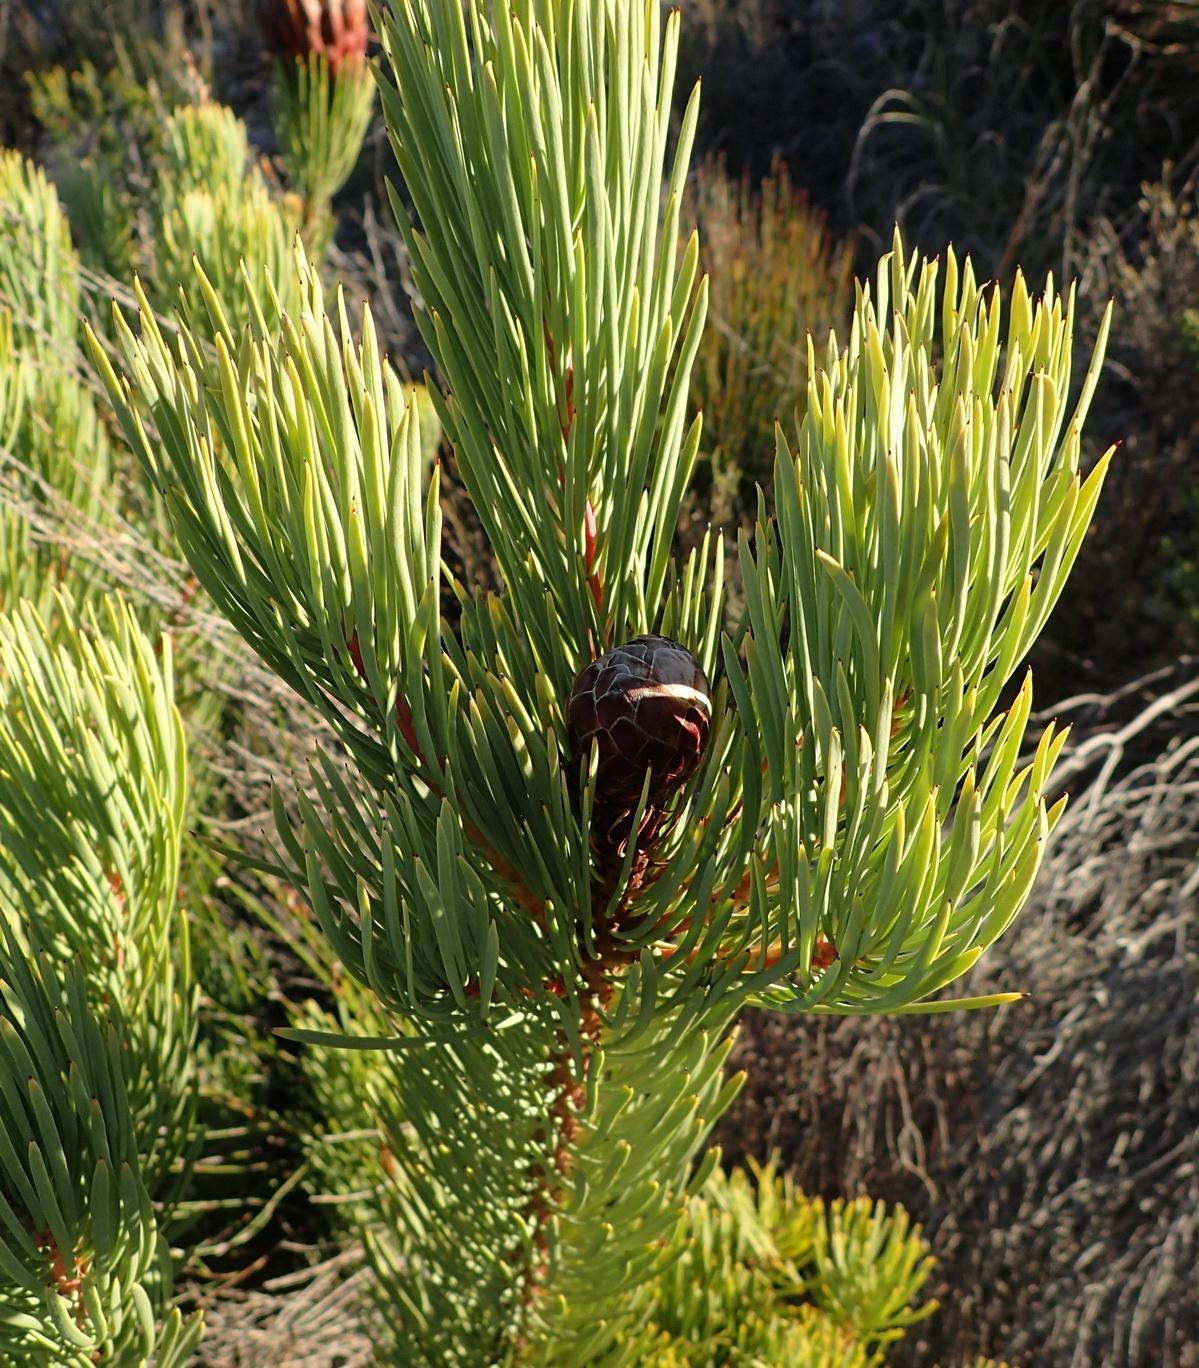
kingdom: Plantae
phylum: Tracheophyta
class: Magnoliopsida
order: Proteales
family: Proteaceae
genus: Protea
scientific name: Protea aristata
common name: Ladismith sugarbush
